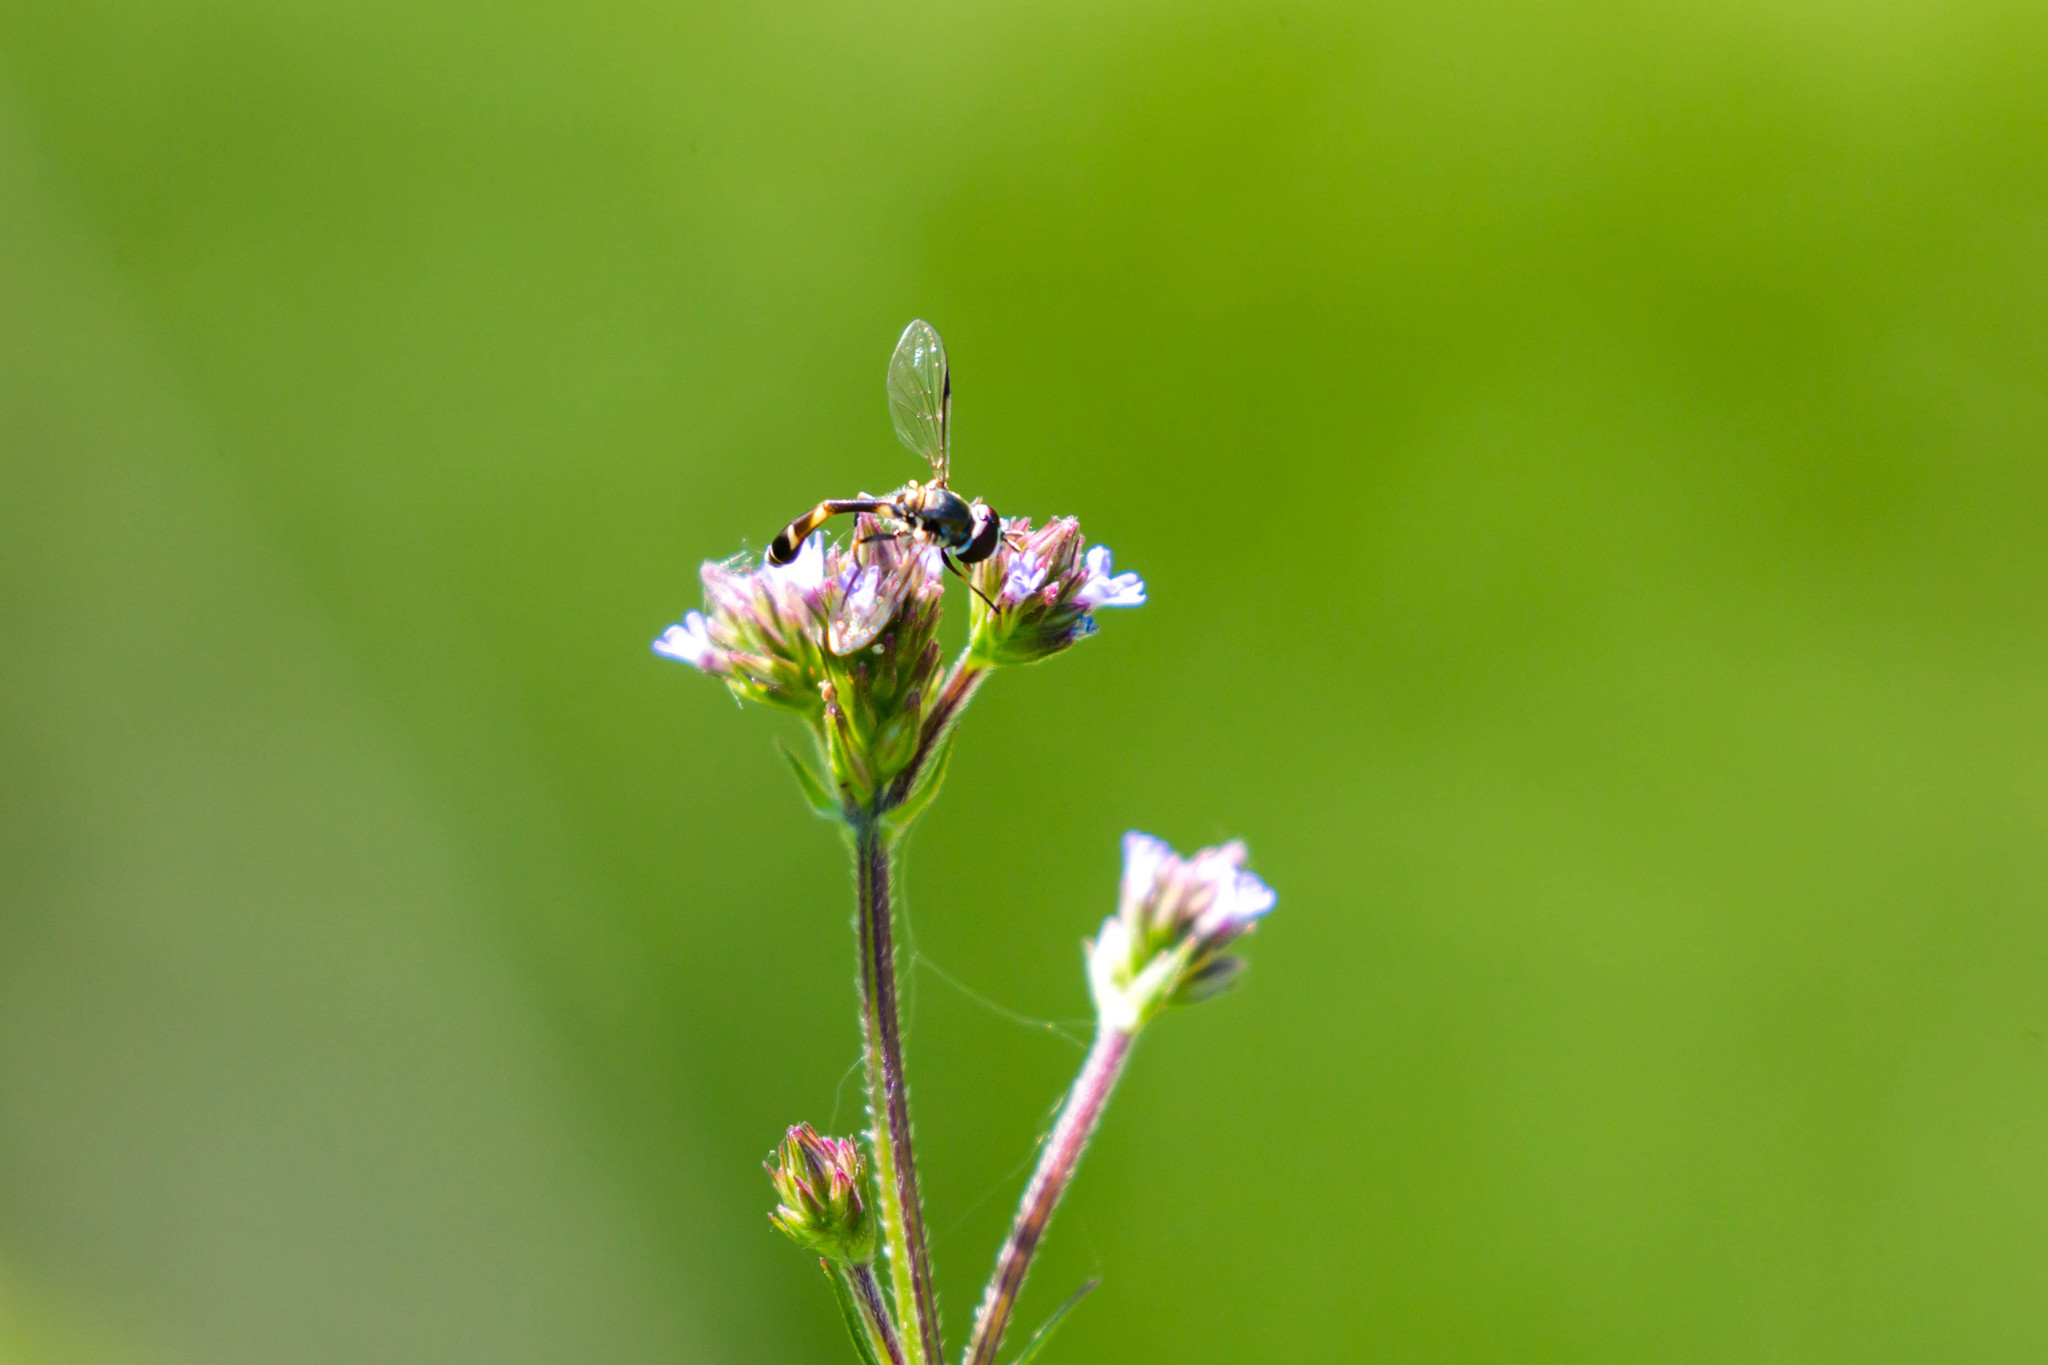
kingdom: Animalia
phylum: Arthropoda
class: Insecta
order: Diptera
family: Syrphidae
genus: Dioprosopa
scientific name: Dioprosopa clavatus
